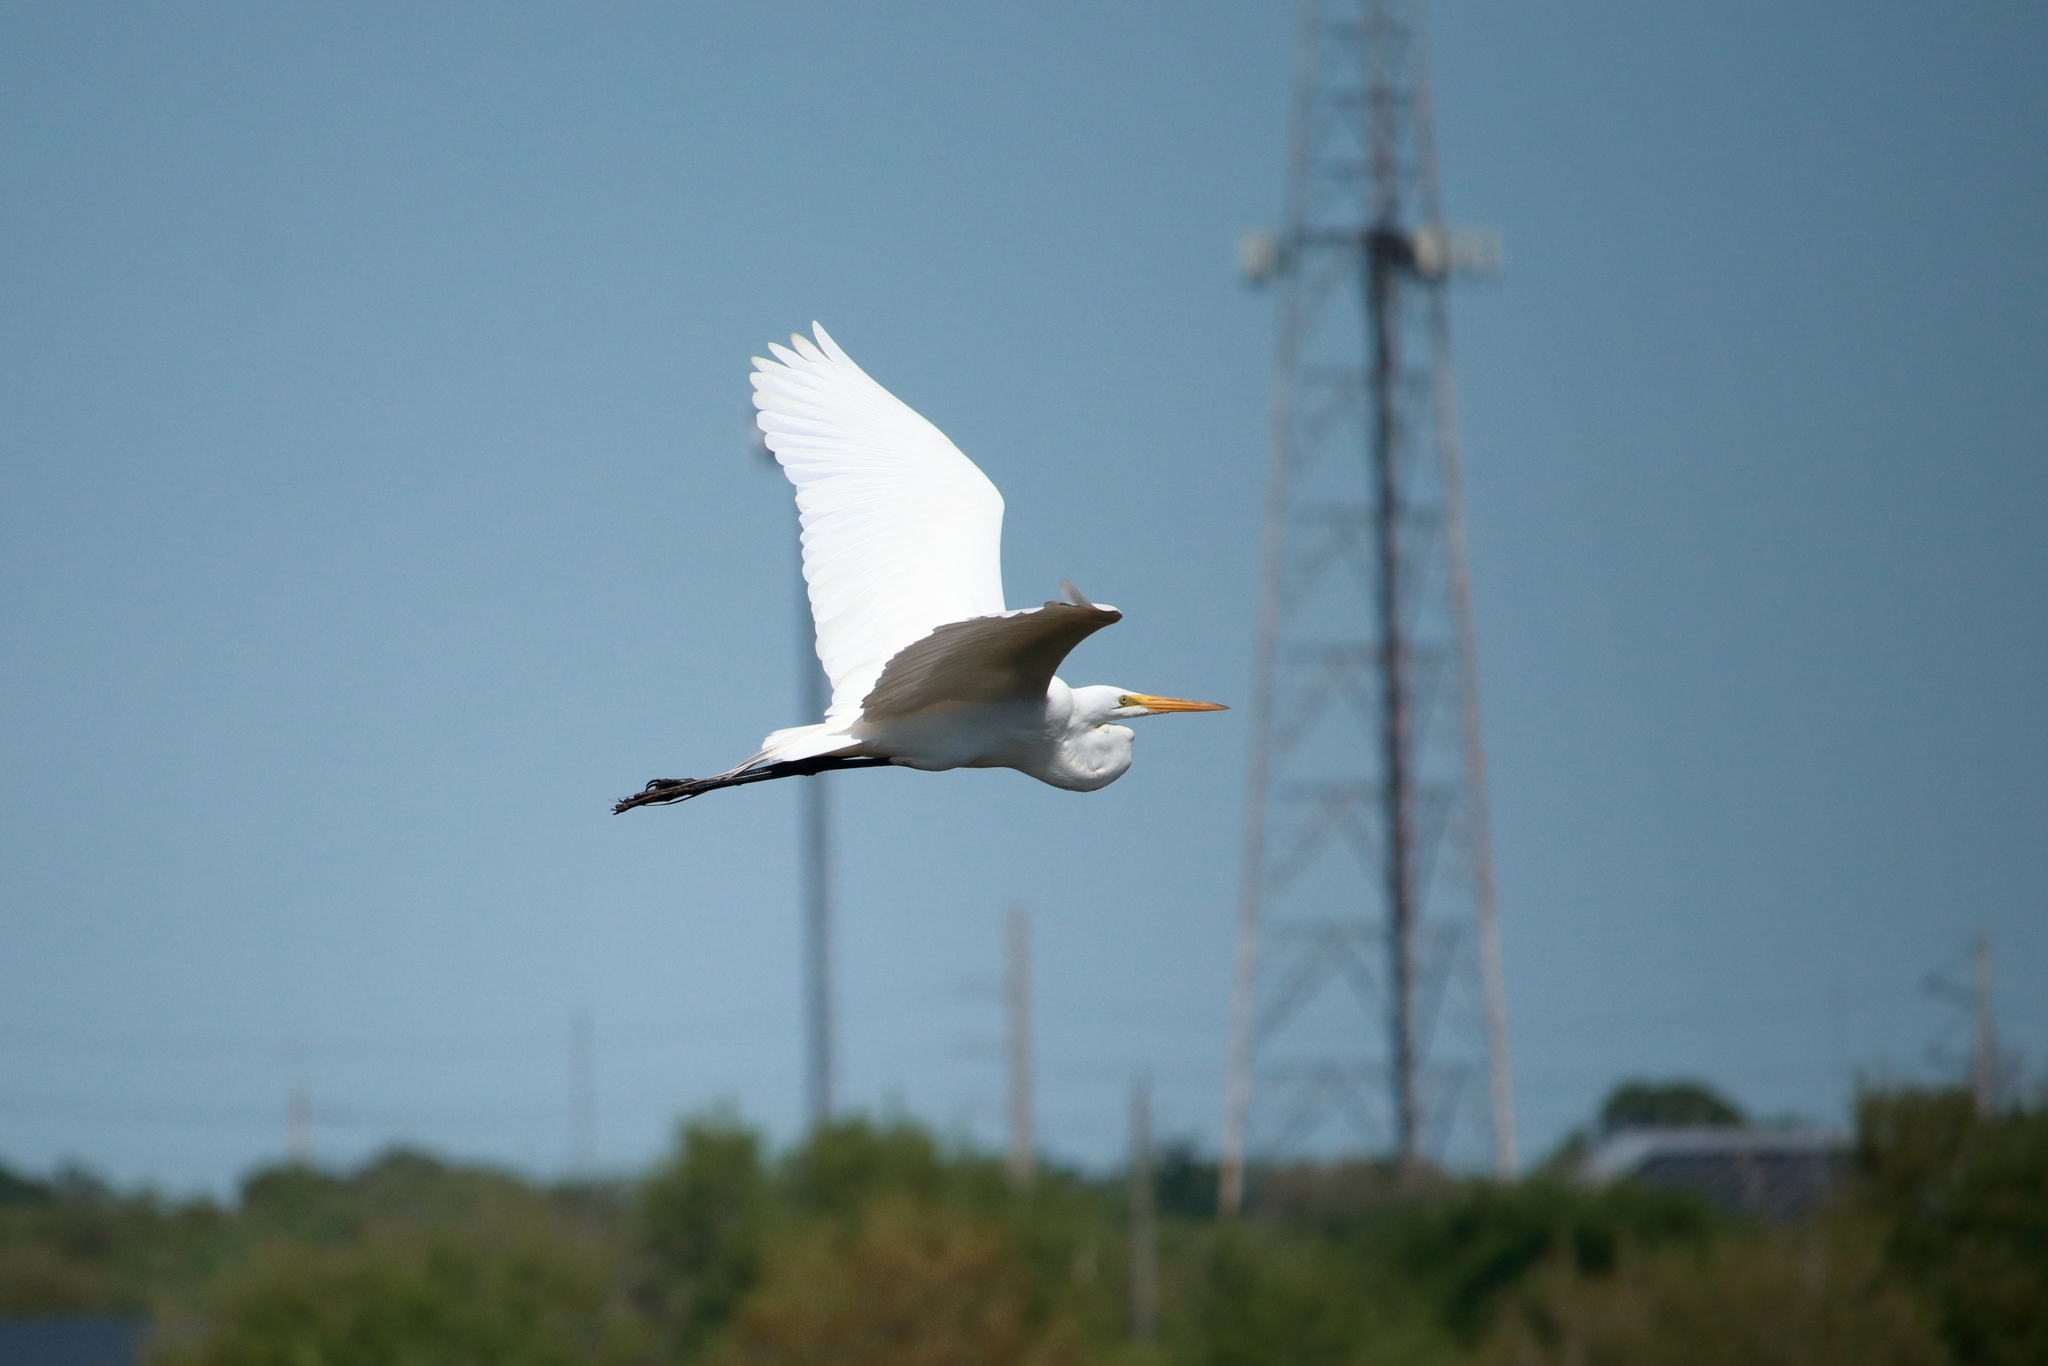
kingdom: Animalia
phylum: Chordata
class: Aves
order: Pelecaniformes
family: Ardeidae
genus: Ardea
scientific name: Ardea alba
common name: Great egret
